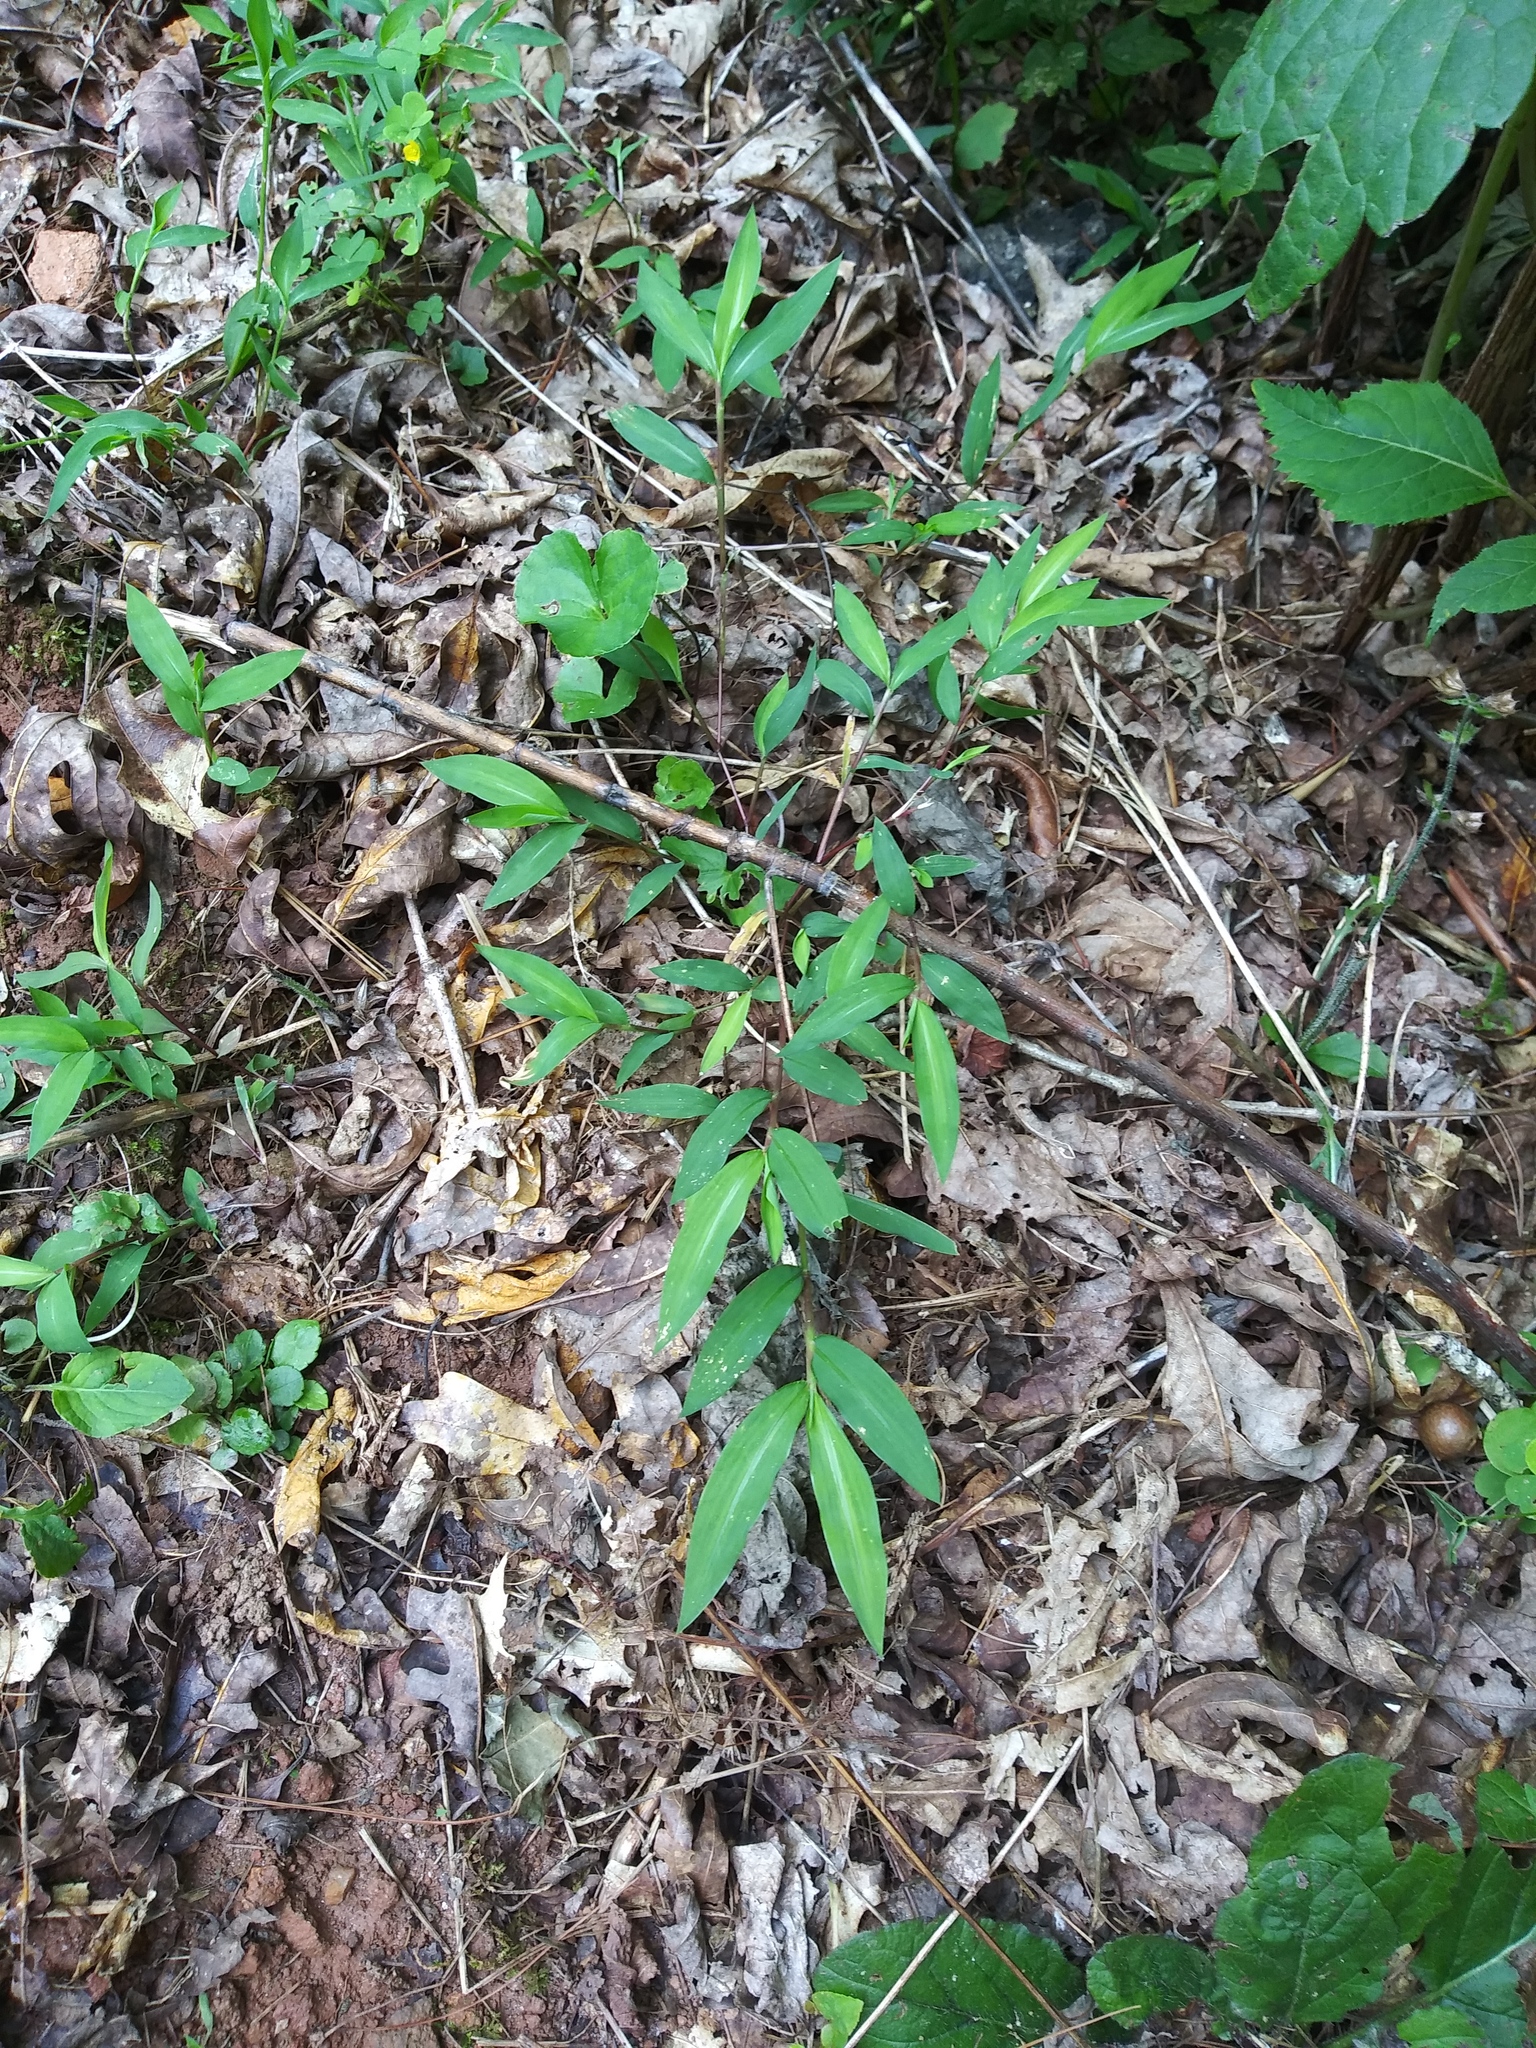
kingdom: Plantae
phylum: Tracheophyta
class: Liliopsida
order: Poales
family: Poaceae
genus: Microstegium
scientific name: Microstegium vimineum
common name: Japanese stiltgrass
